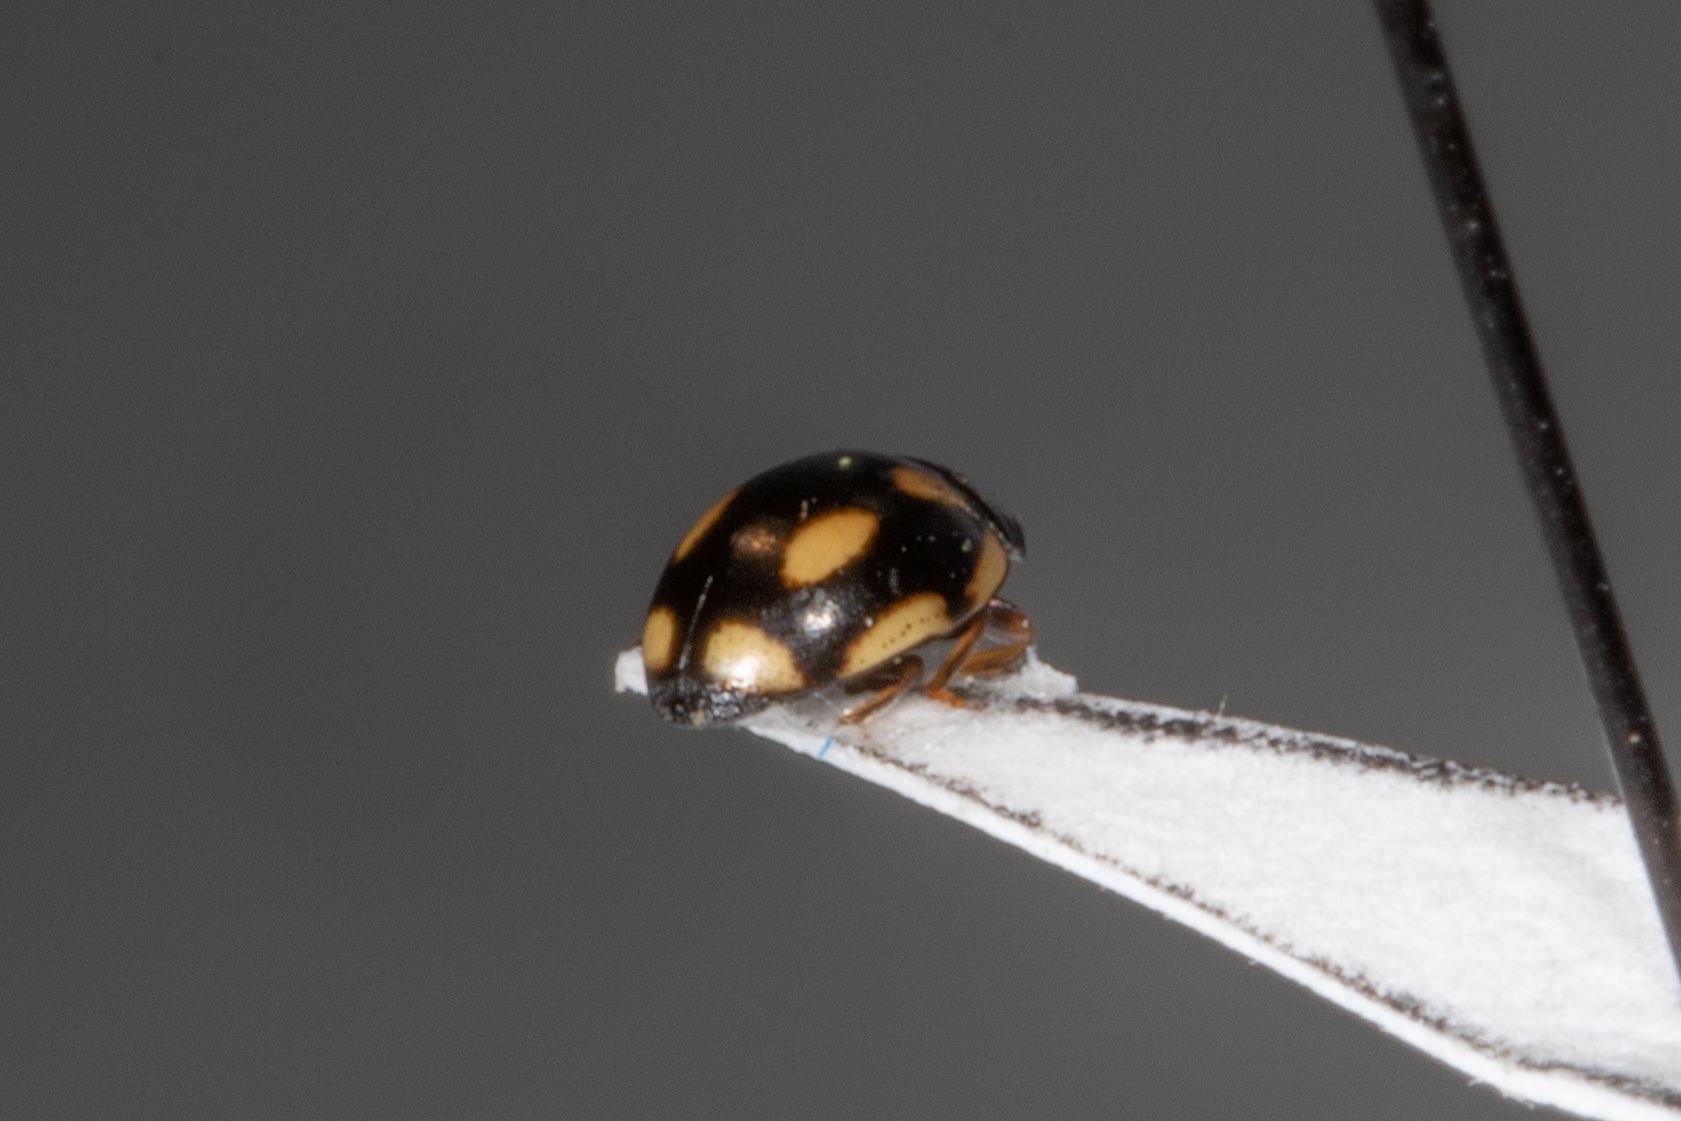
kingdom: Animalia
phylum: Arthropoda
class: Insecta
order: Coleoptera
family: Coccinellidae
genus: Hyperaspis
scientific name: Hyperaspis disconotata
